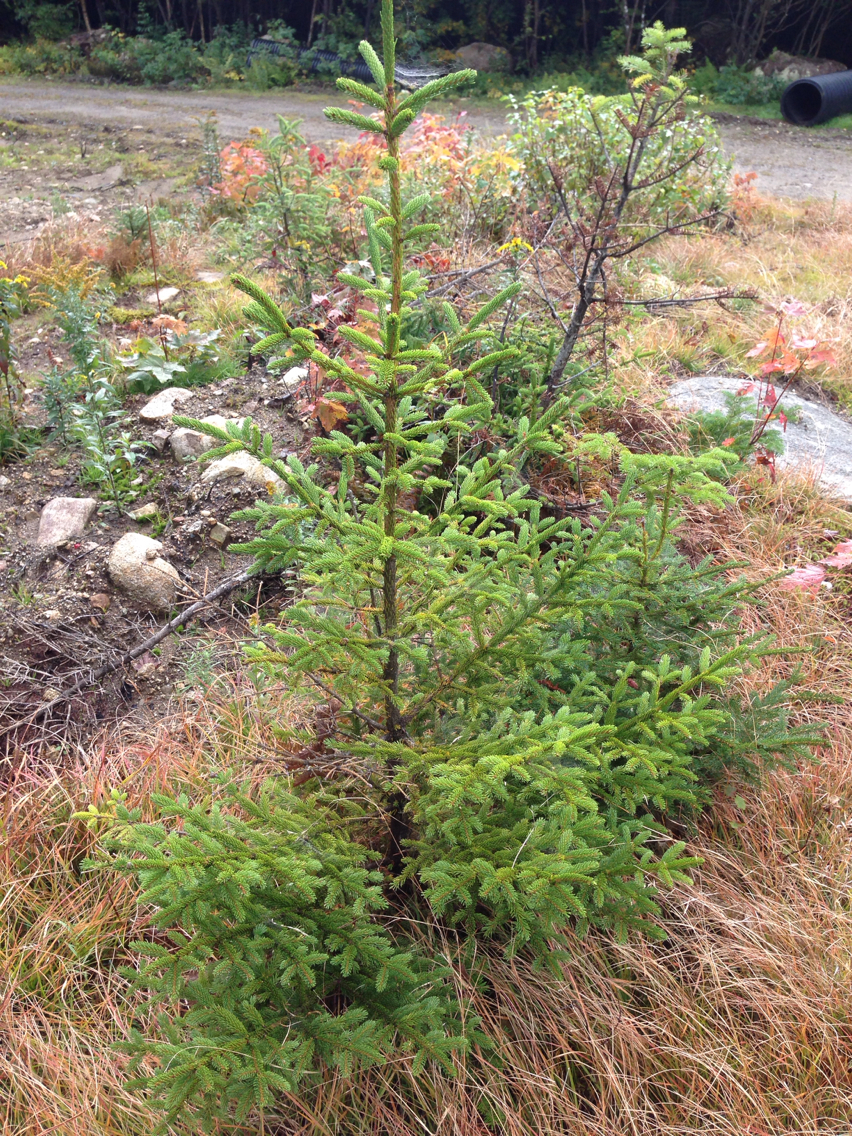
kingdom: Plantae
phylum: Tracheophyta
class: Pinopsida
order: Pinales
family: Pinaceae
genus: Picea
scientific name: Picea rubens
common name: Red spruce
